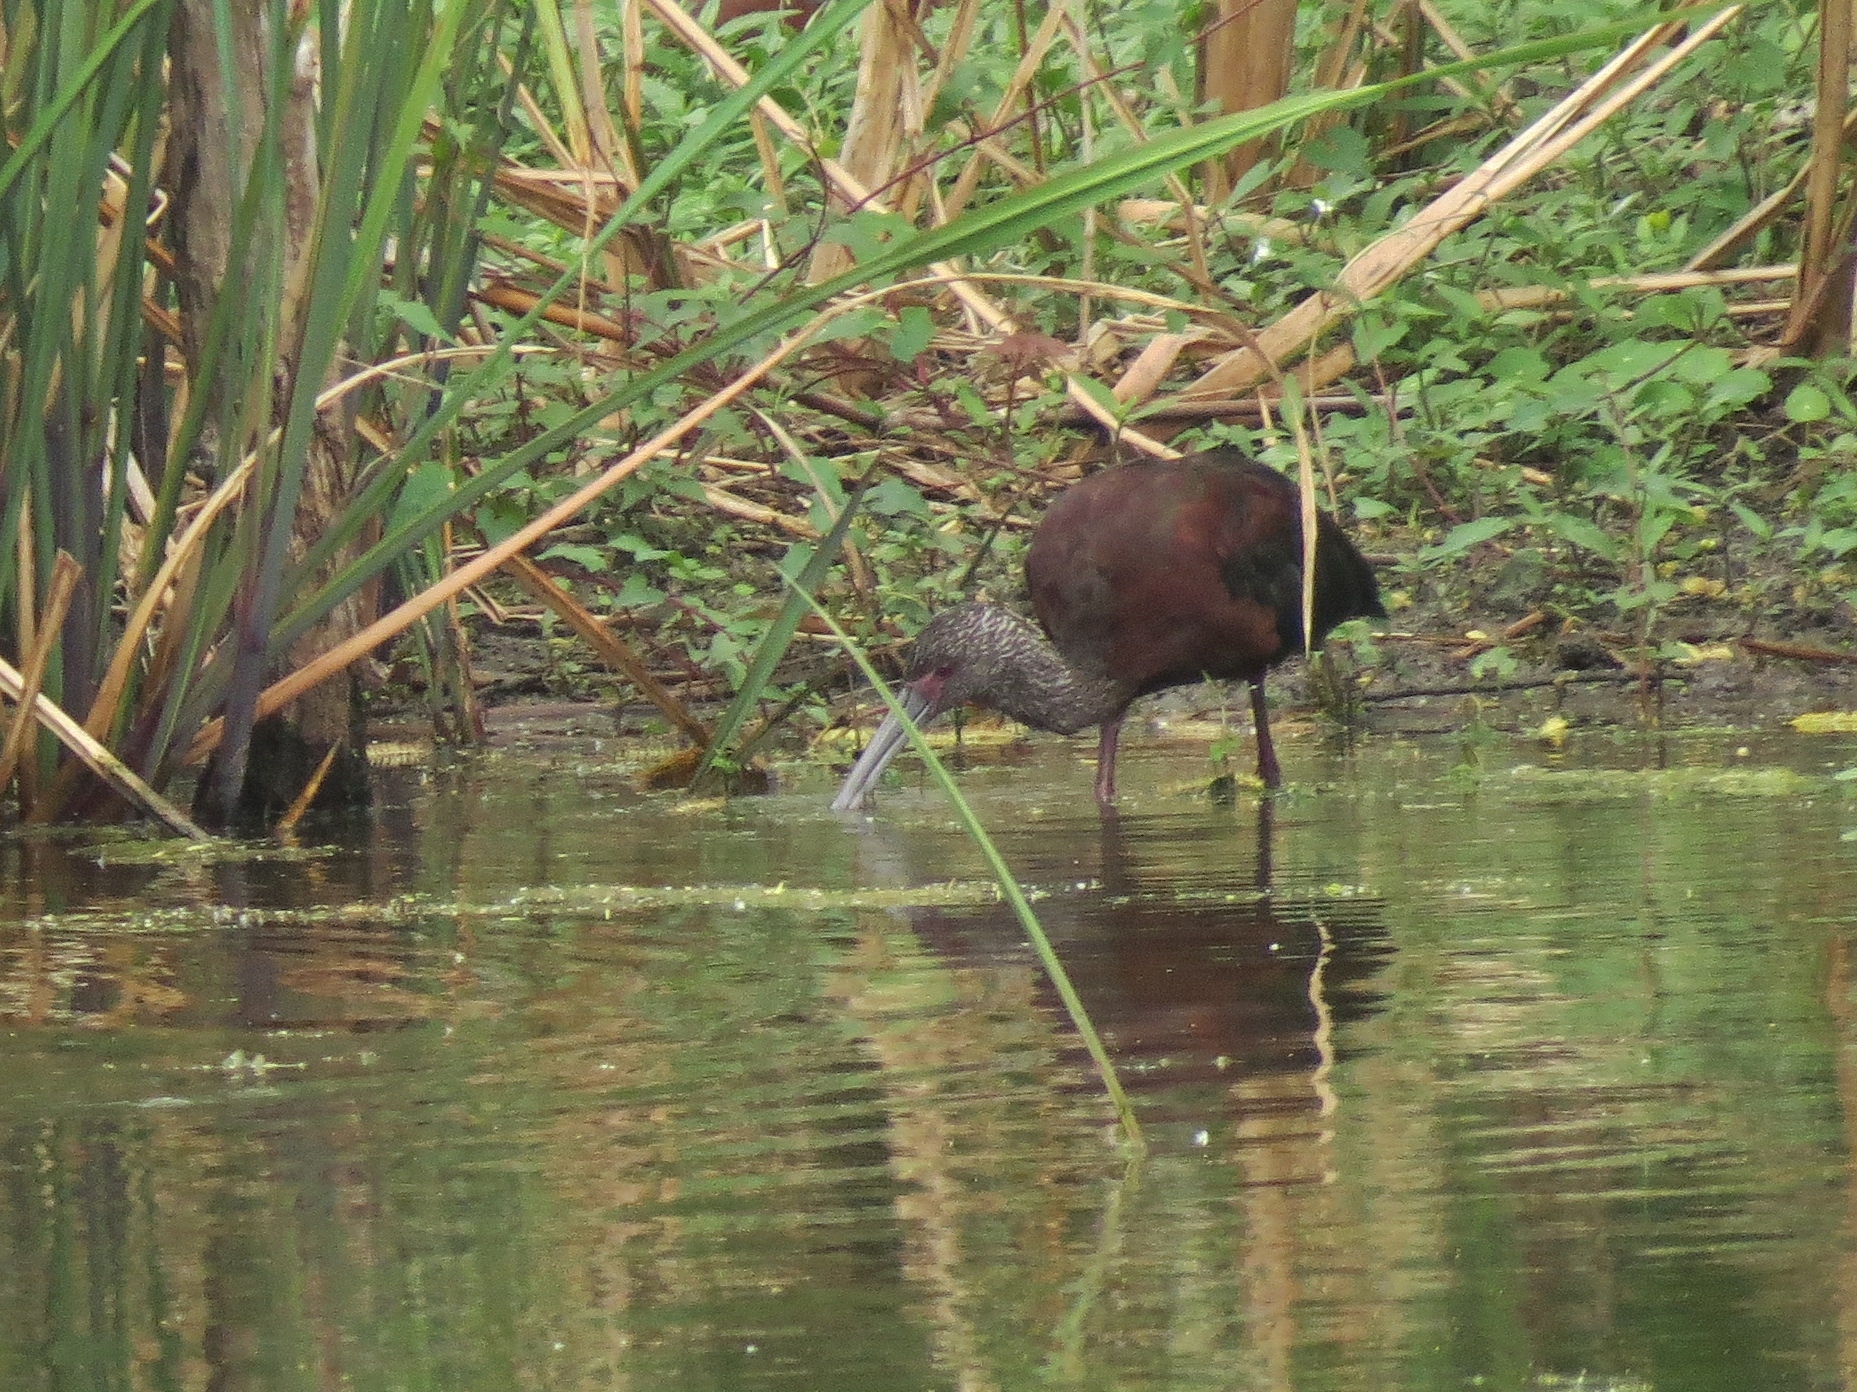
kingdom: Animalia
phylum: Chordata
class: Aves
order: Pelecaniformes
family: Threskiornithidae
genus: Plegadis
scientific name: Plegadis chihi
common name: White-faced ibis
